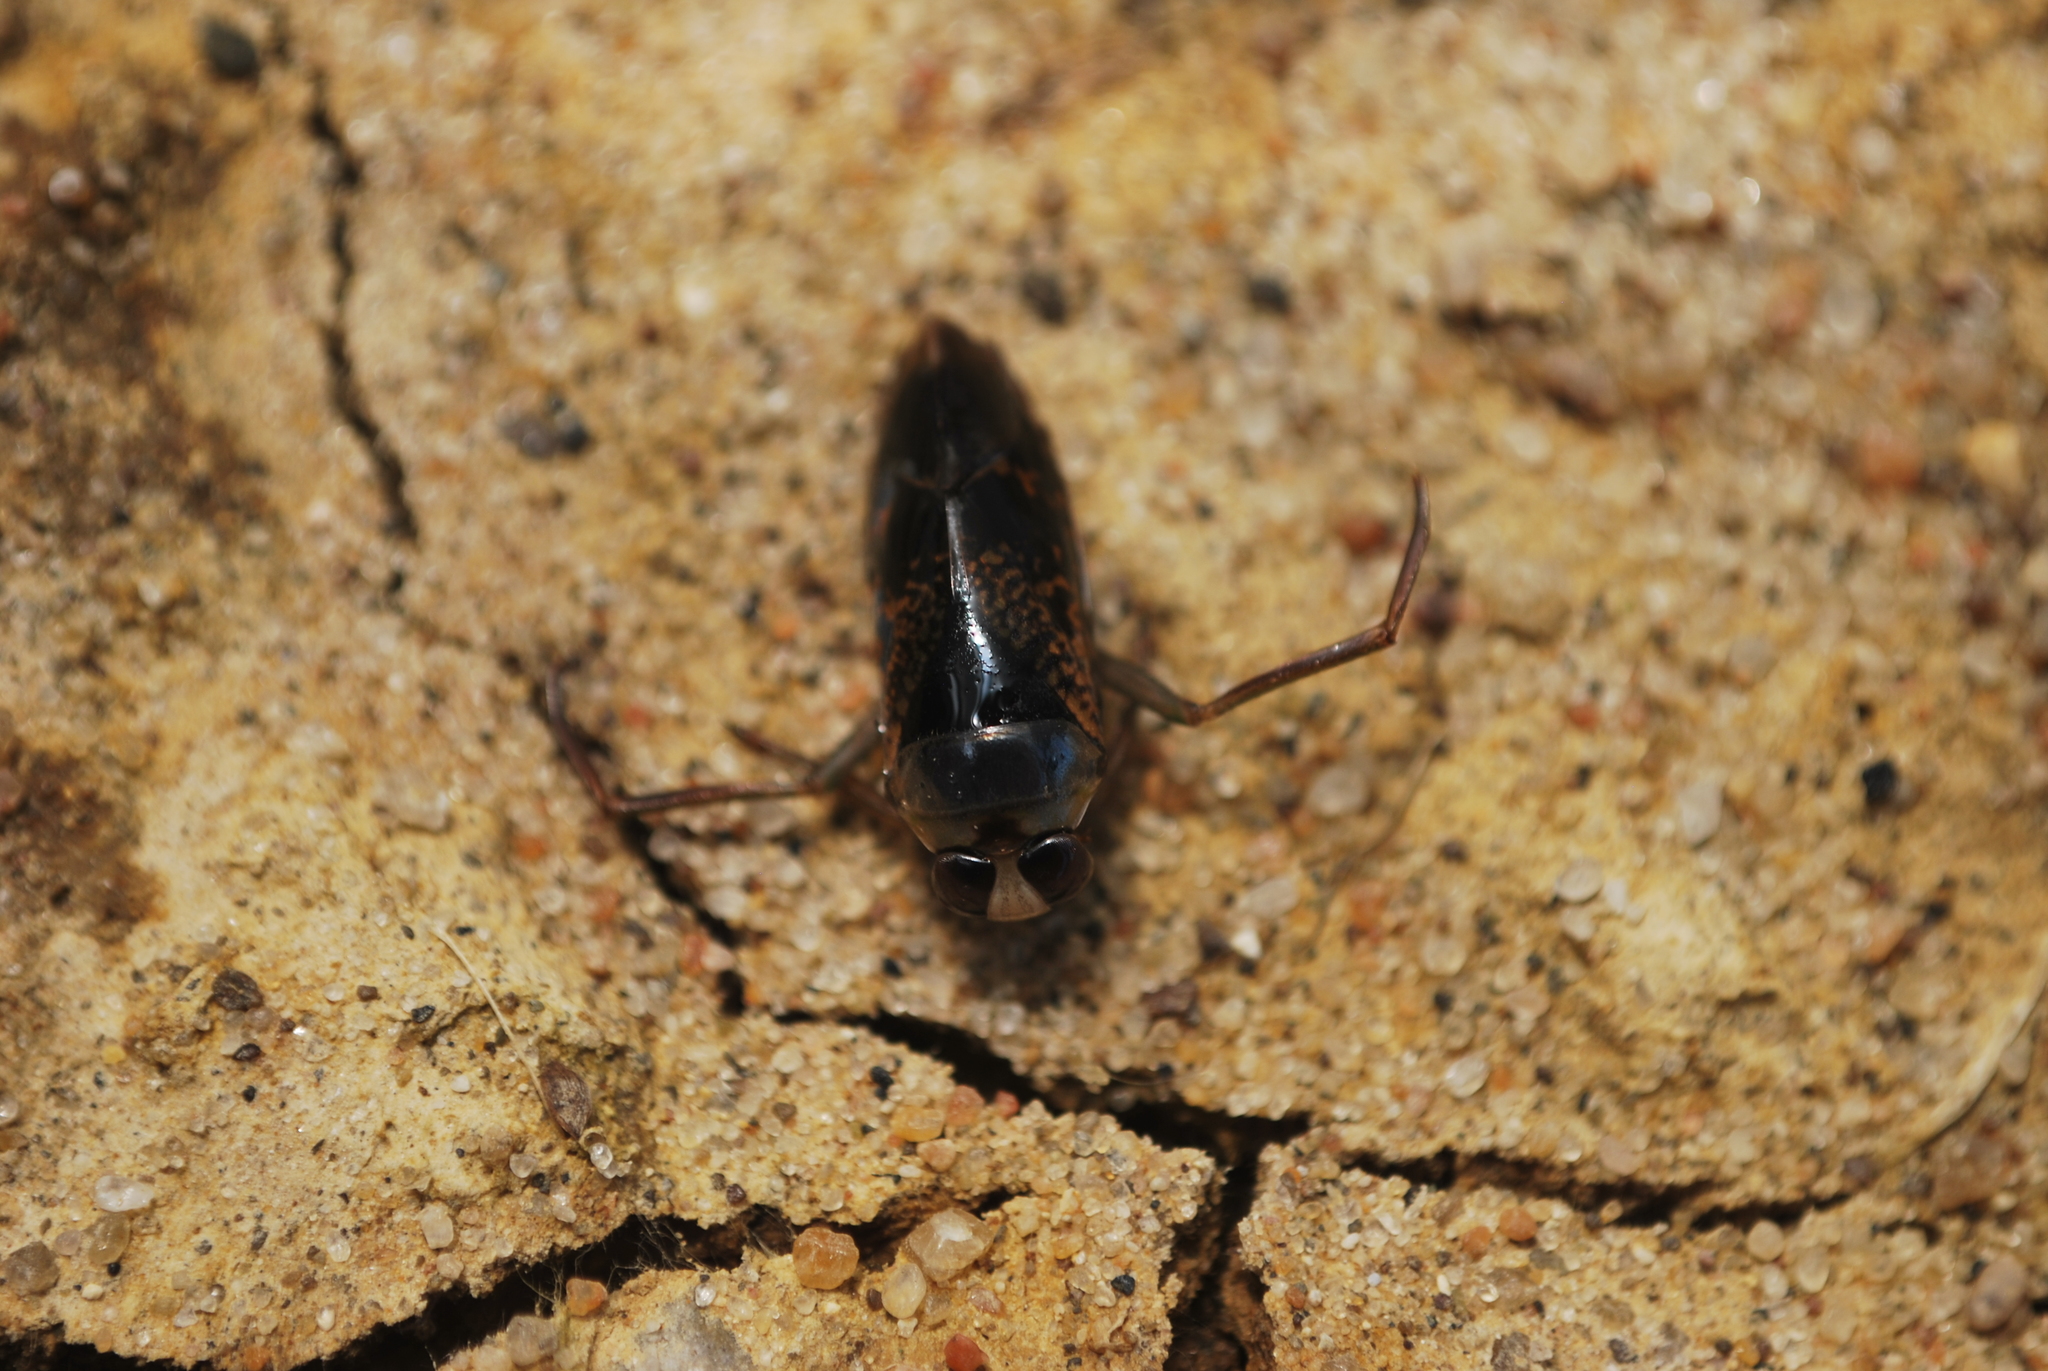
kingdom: Animalia
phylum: Arthropoda
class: Insecta
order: Hemiptera
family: Notonectidae
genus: Notonecta
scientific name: Notonecta irrorata
